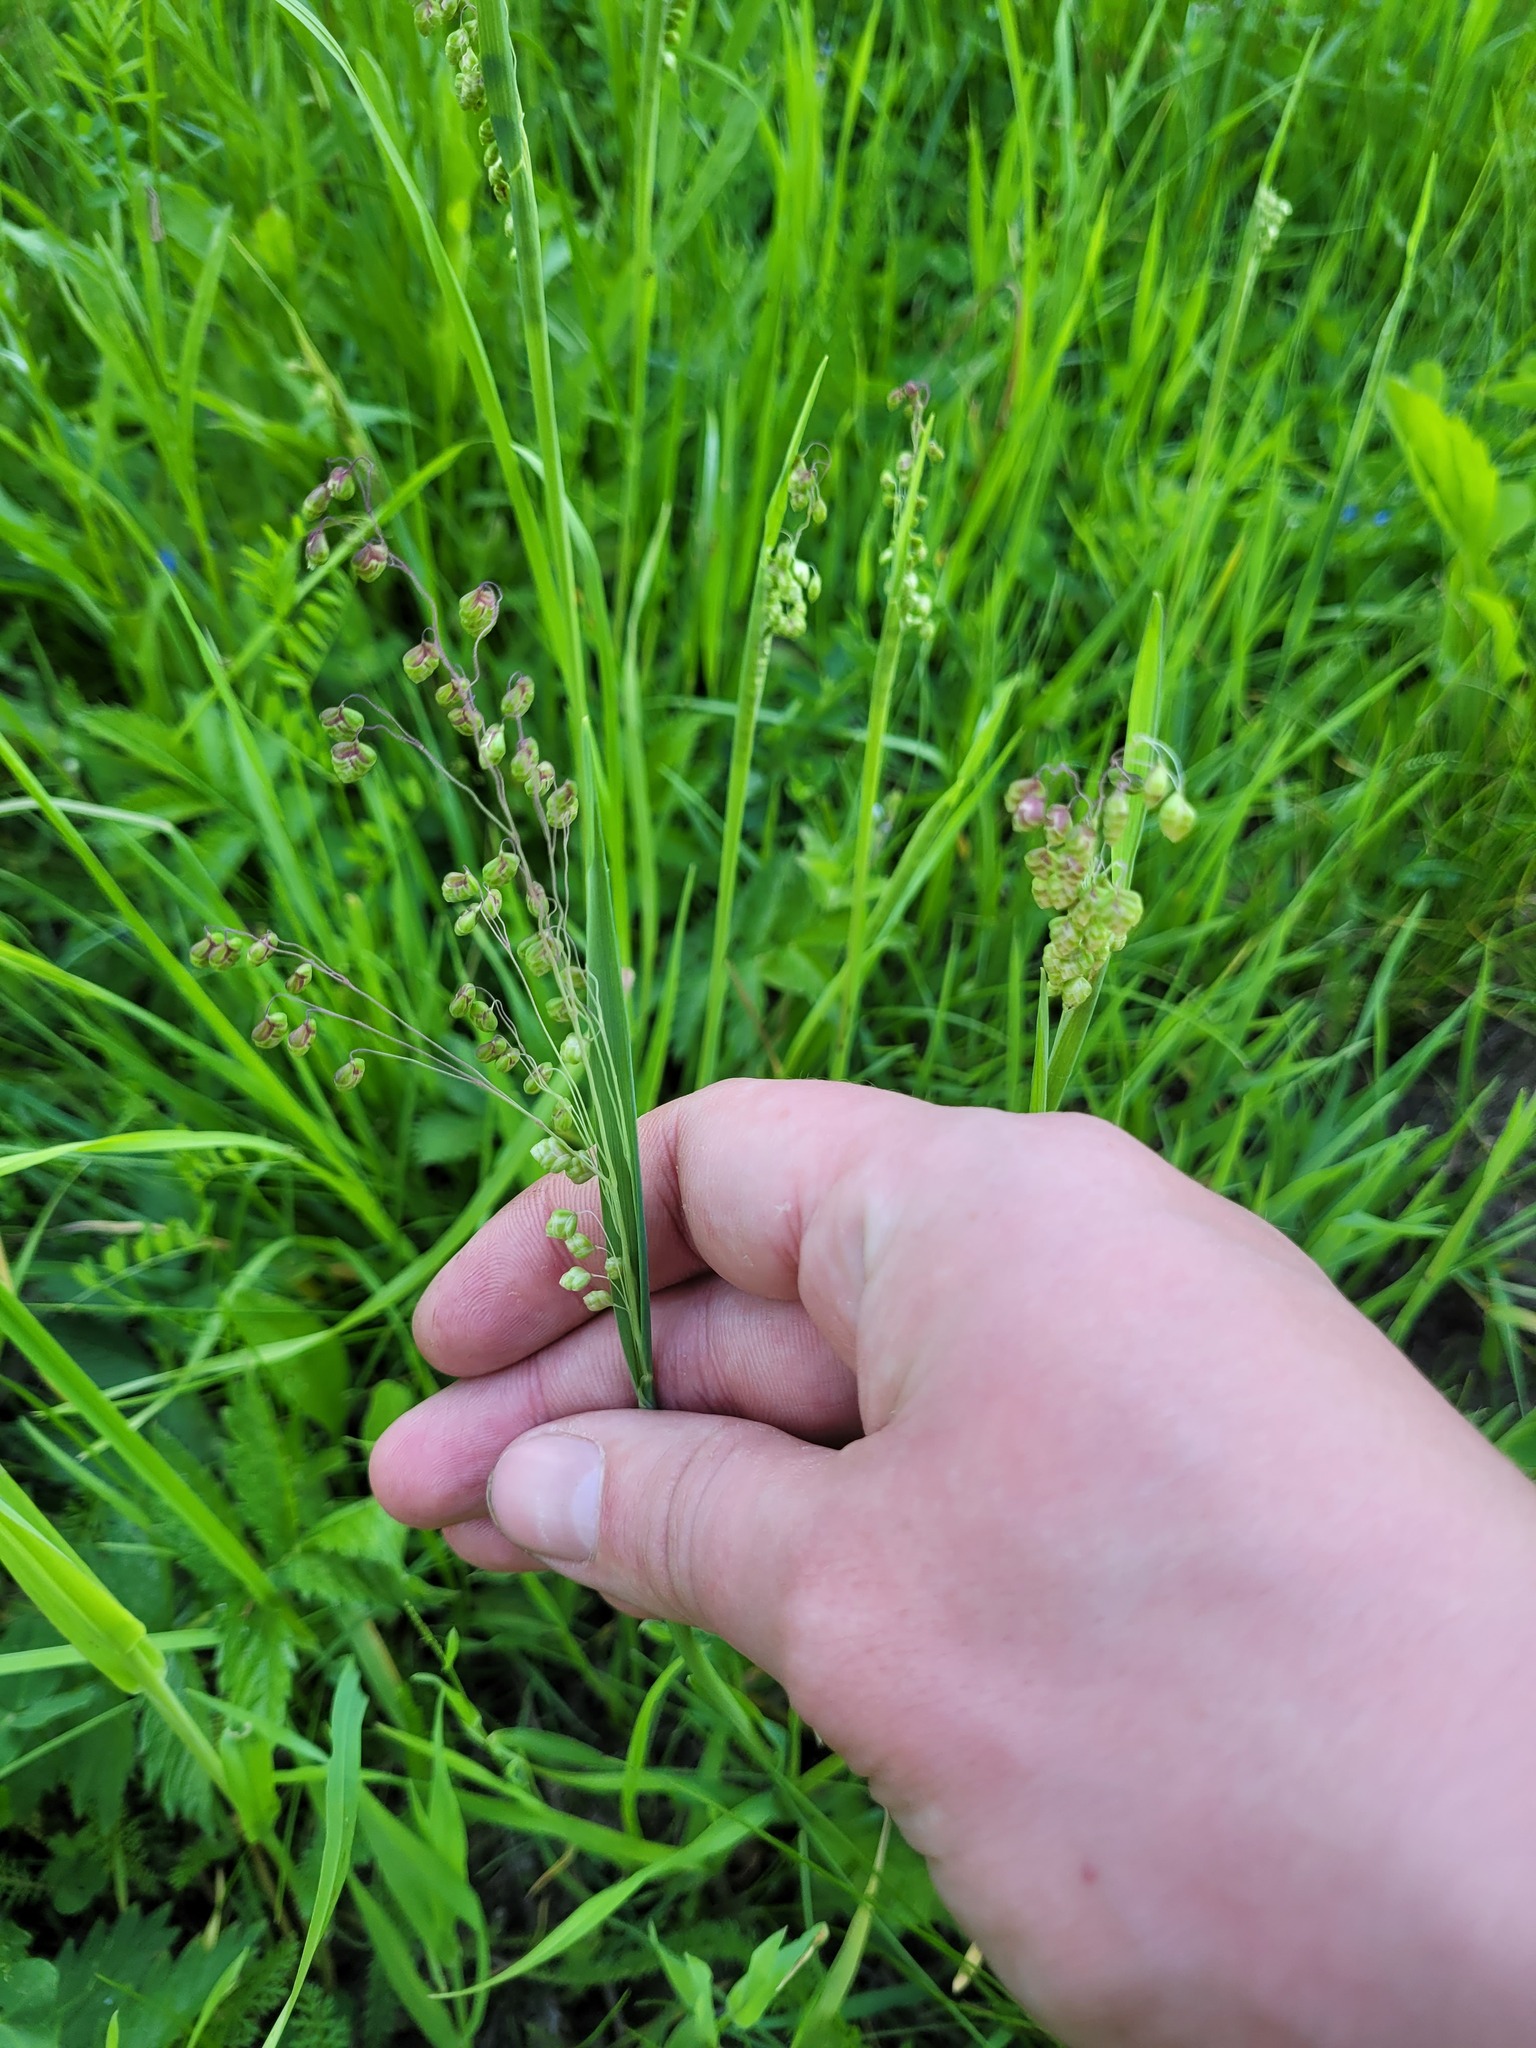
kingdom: Plantae
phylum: Tracheophyta
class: Liliopsida
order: Poales
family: Poaceae
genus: Briza
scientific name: Briza media
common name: Quaking grass
